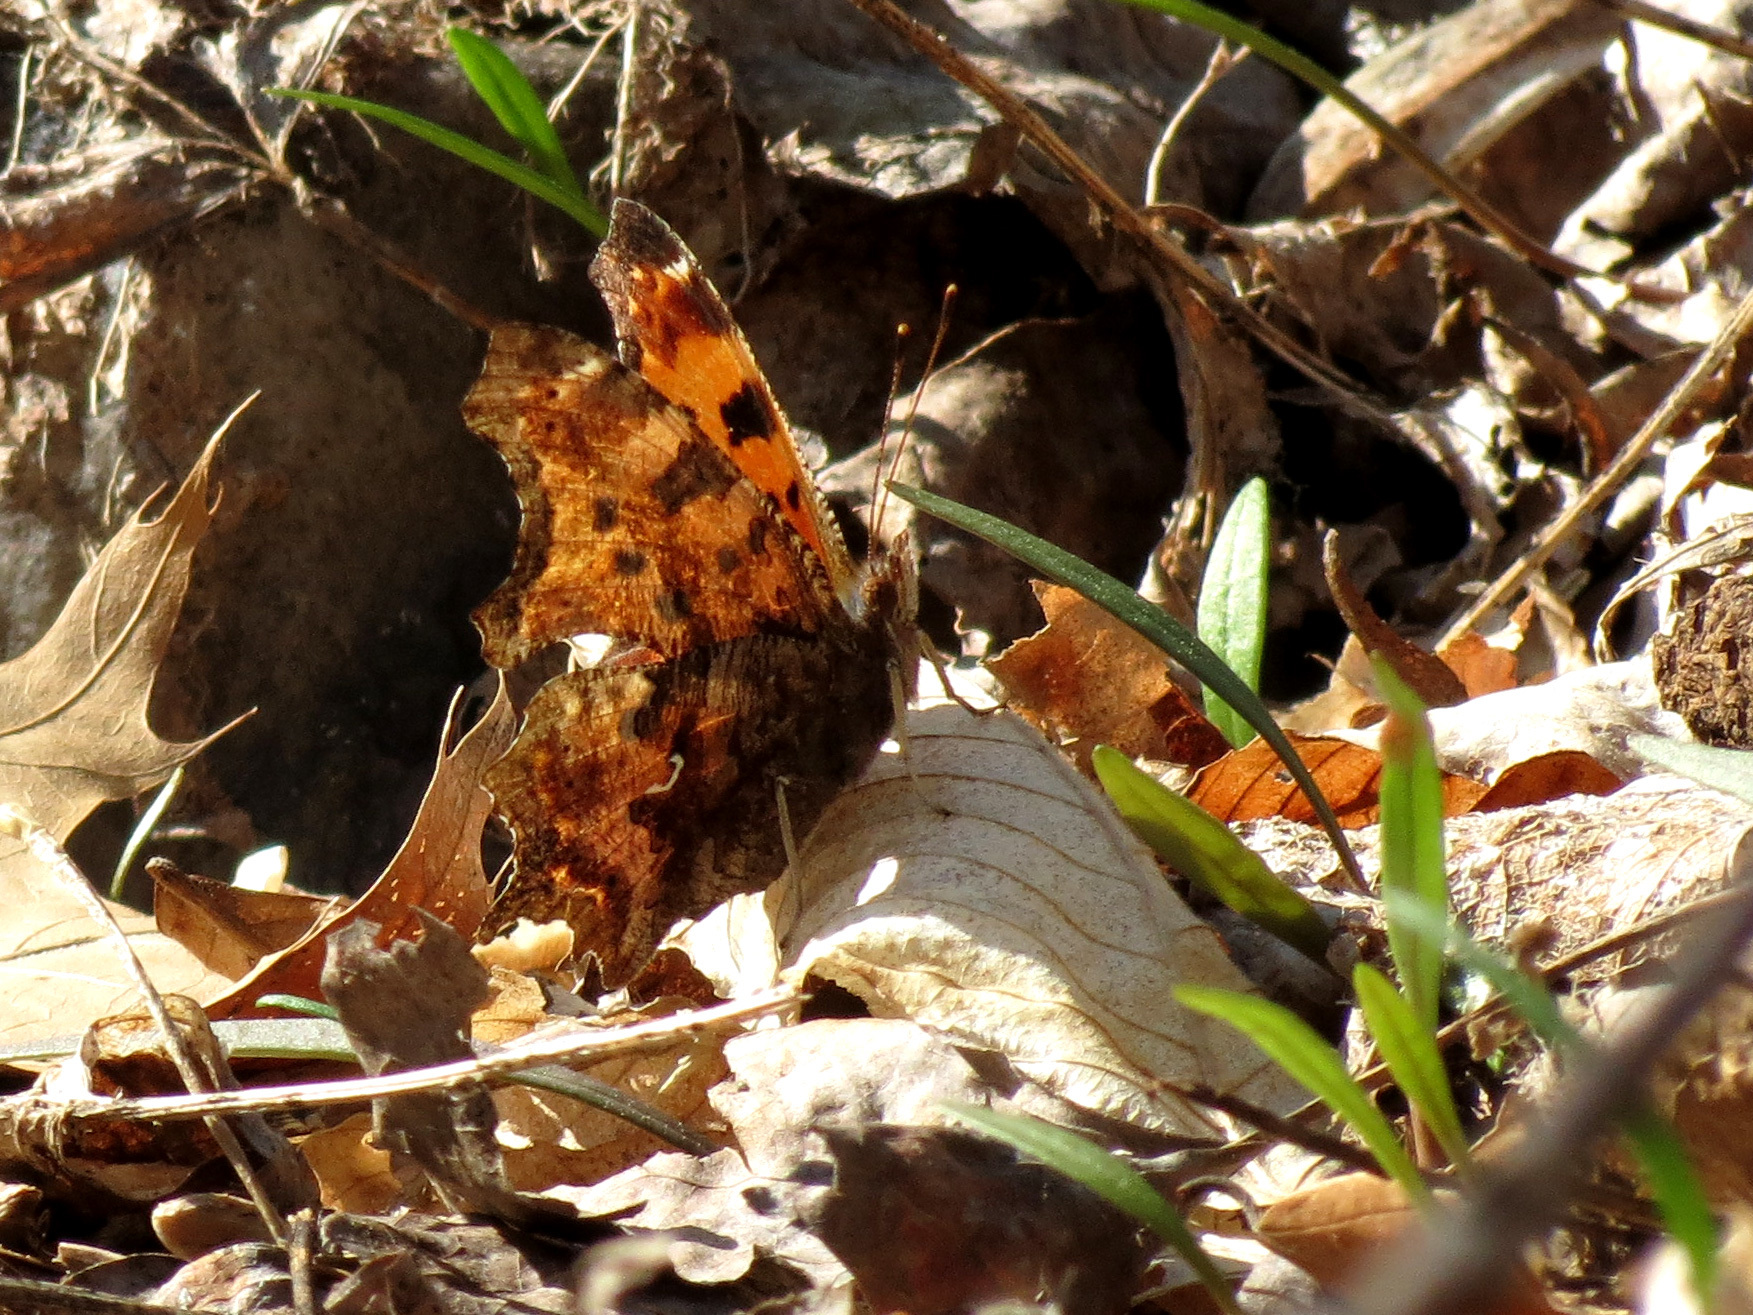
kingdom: Animalia
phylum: Arthropoda
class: Insecta
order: Lepidoptera
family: Nymphalidae
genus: Polygonia
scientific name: Polygonia comma
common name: Eastern comma
